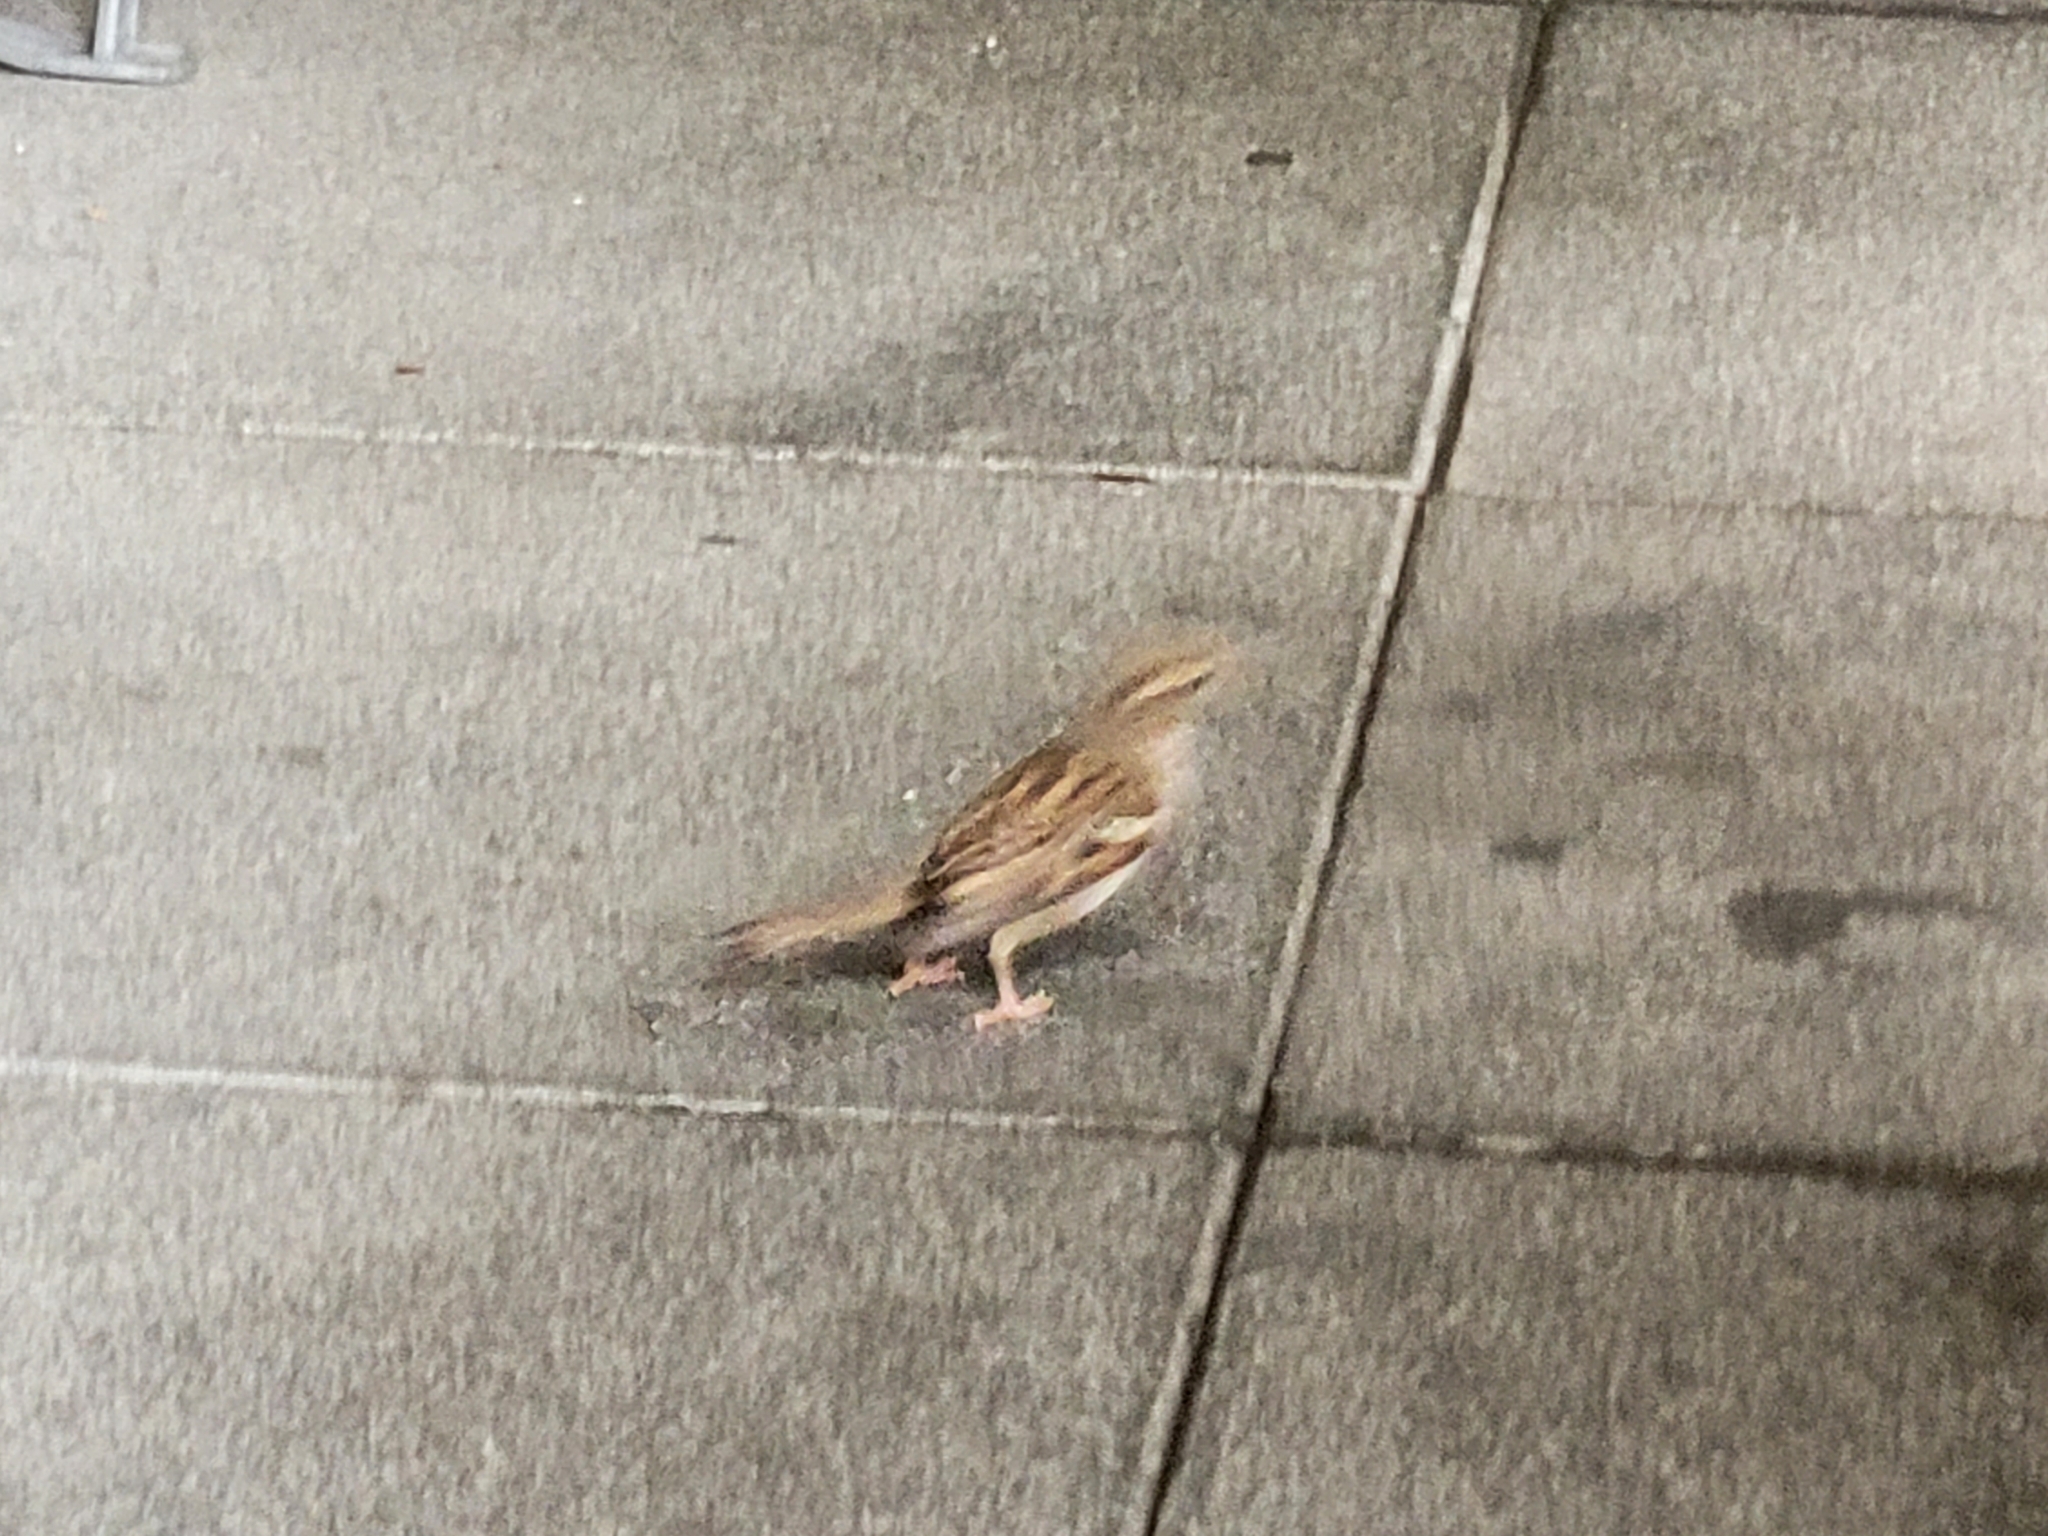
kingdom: Animalia
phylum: Chordata
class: Aves
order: Passeriformes
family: Passeridae
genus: Passer
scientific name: Passer domesticus
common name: House sparrow
